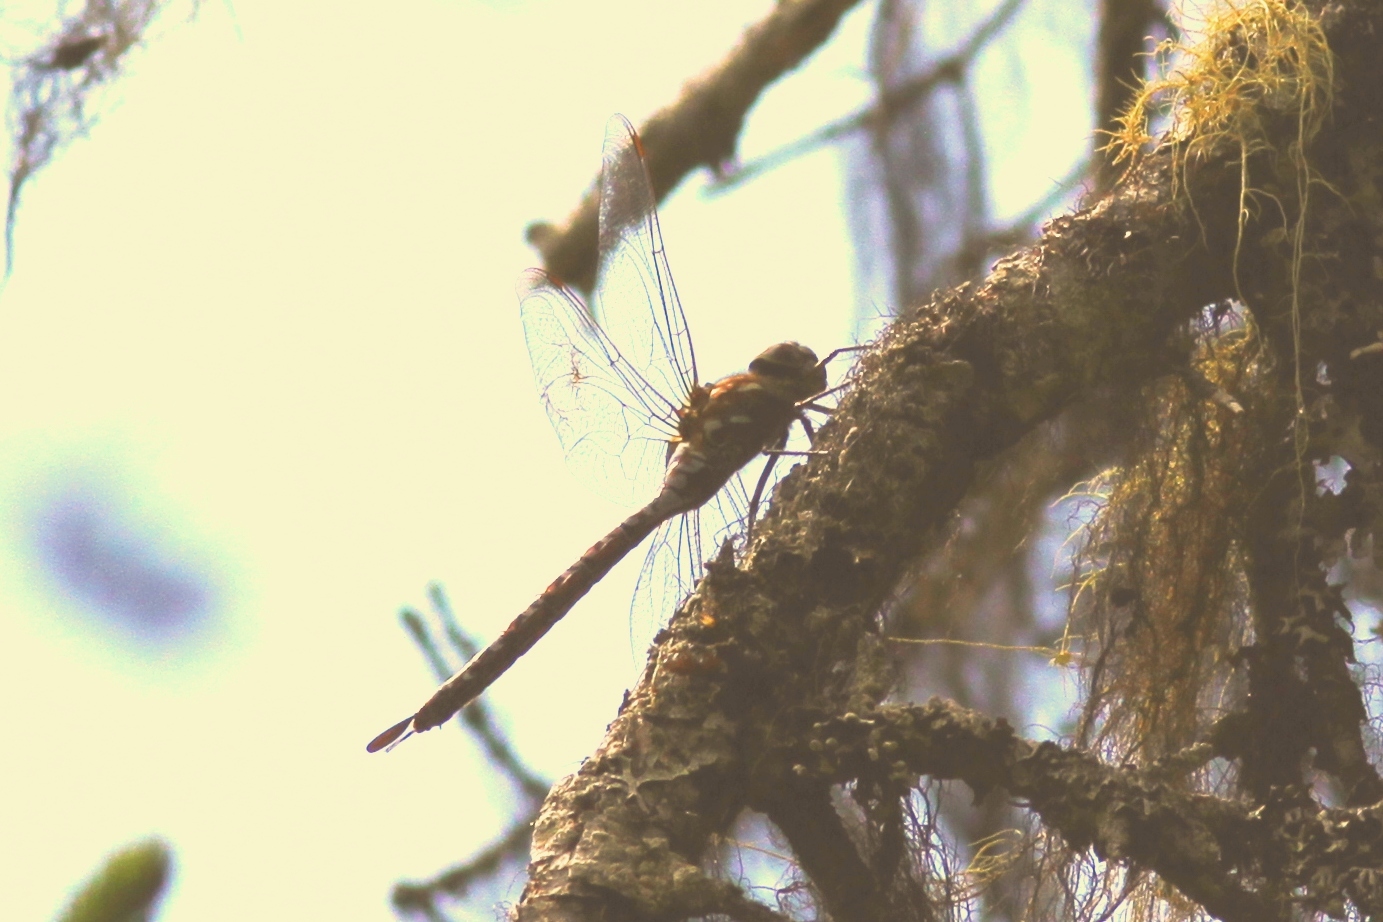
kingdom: Animalia
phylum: Arthropoda
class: Insecta
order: Odonata
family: Aeshnidae
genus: Aeshna
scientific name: Aeshna interrupta
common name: Variable darner
